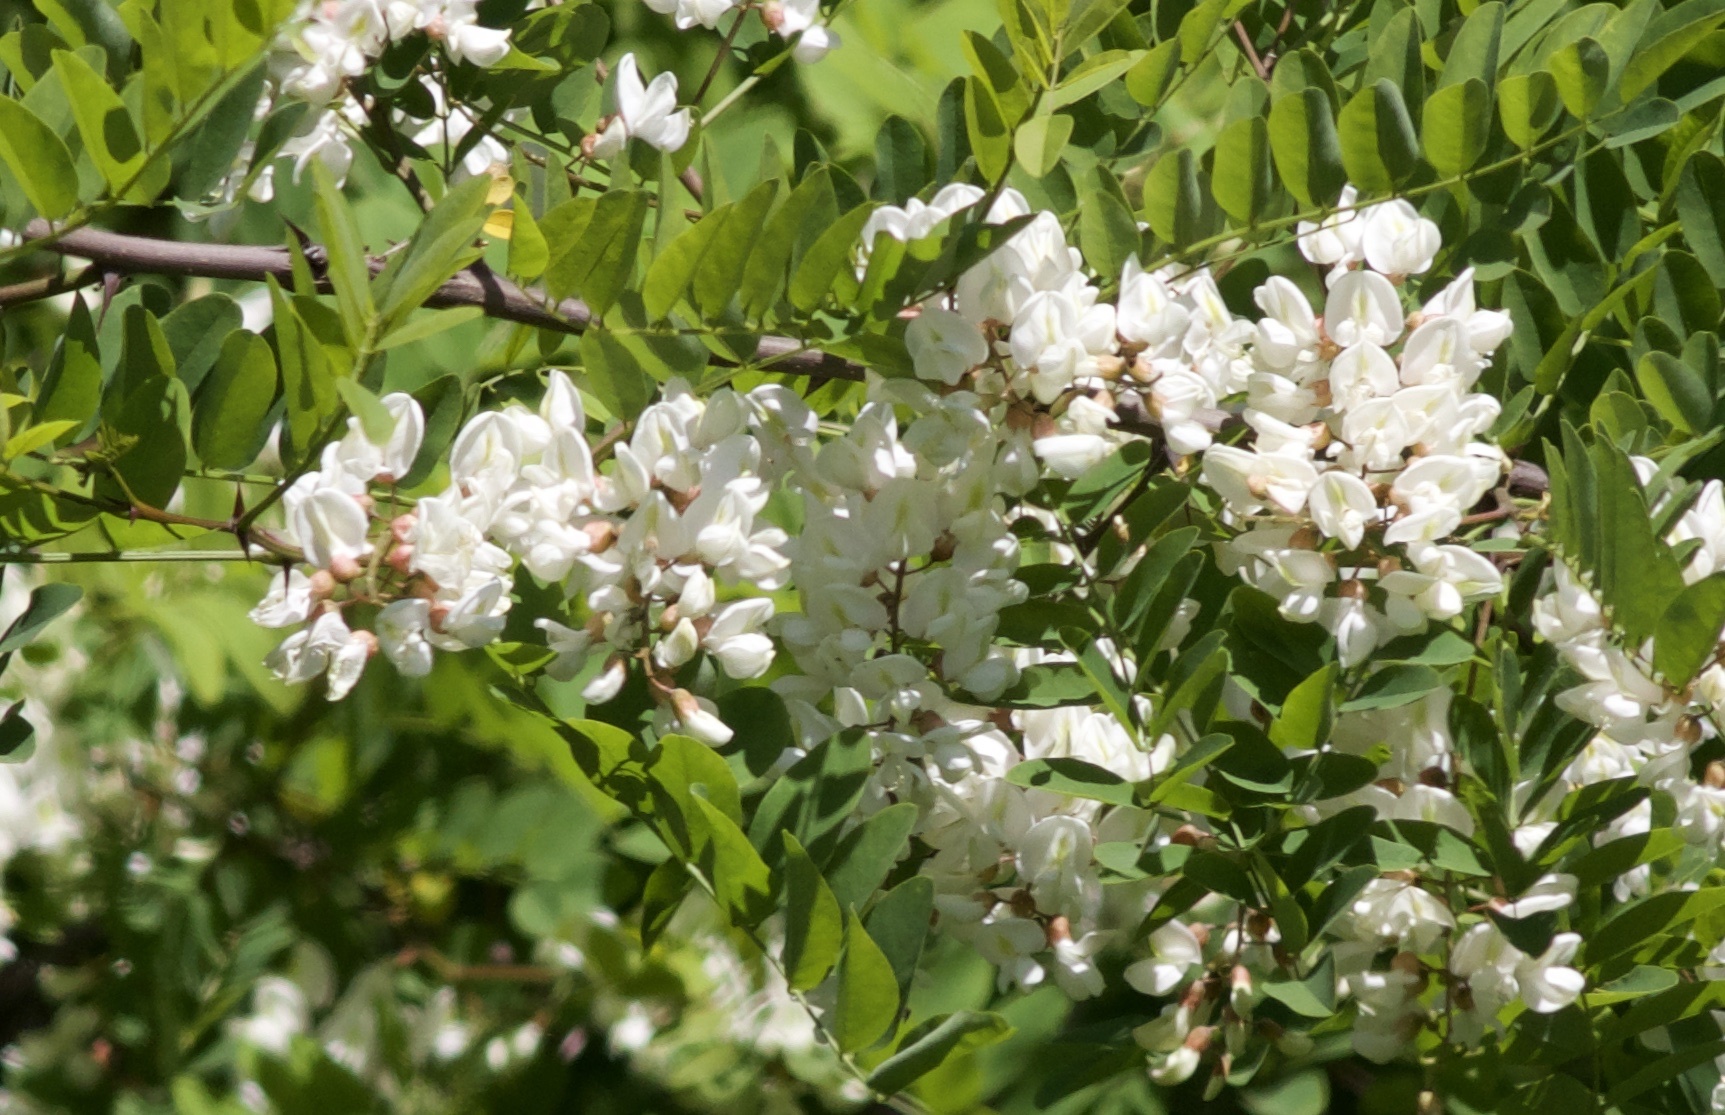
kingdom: Plantae
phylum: Tracheophyta
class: Magnoliopsida
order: Fabales
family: Fabaceae
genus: Robinia
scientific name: Robinia pseudoacacia
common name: Black locust
